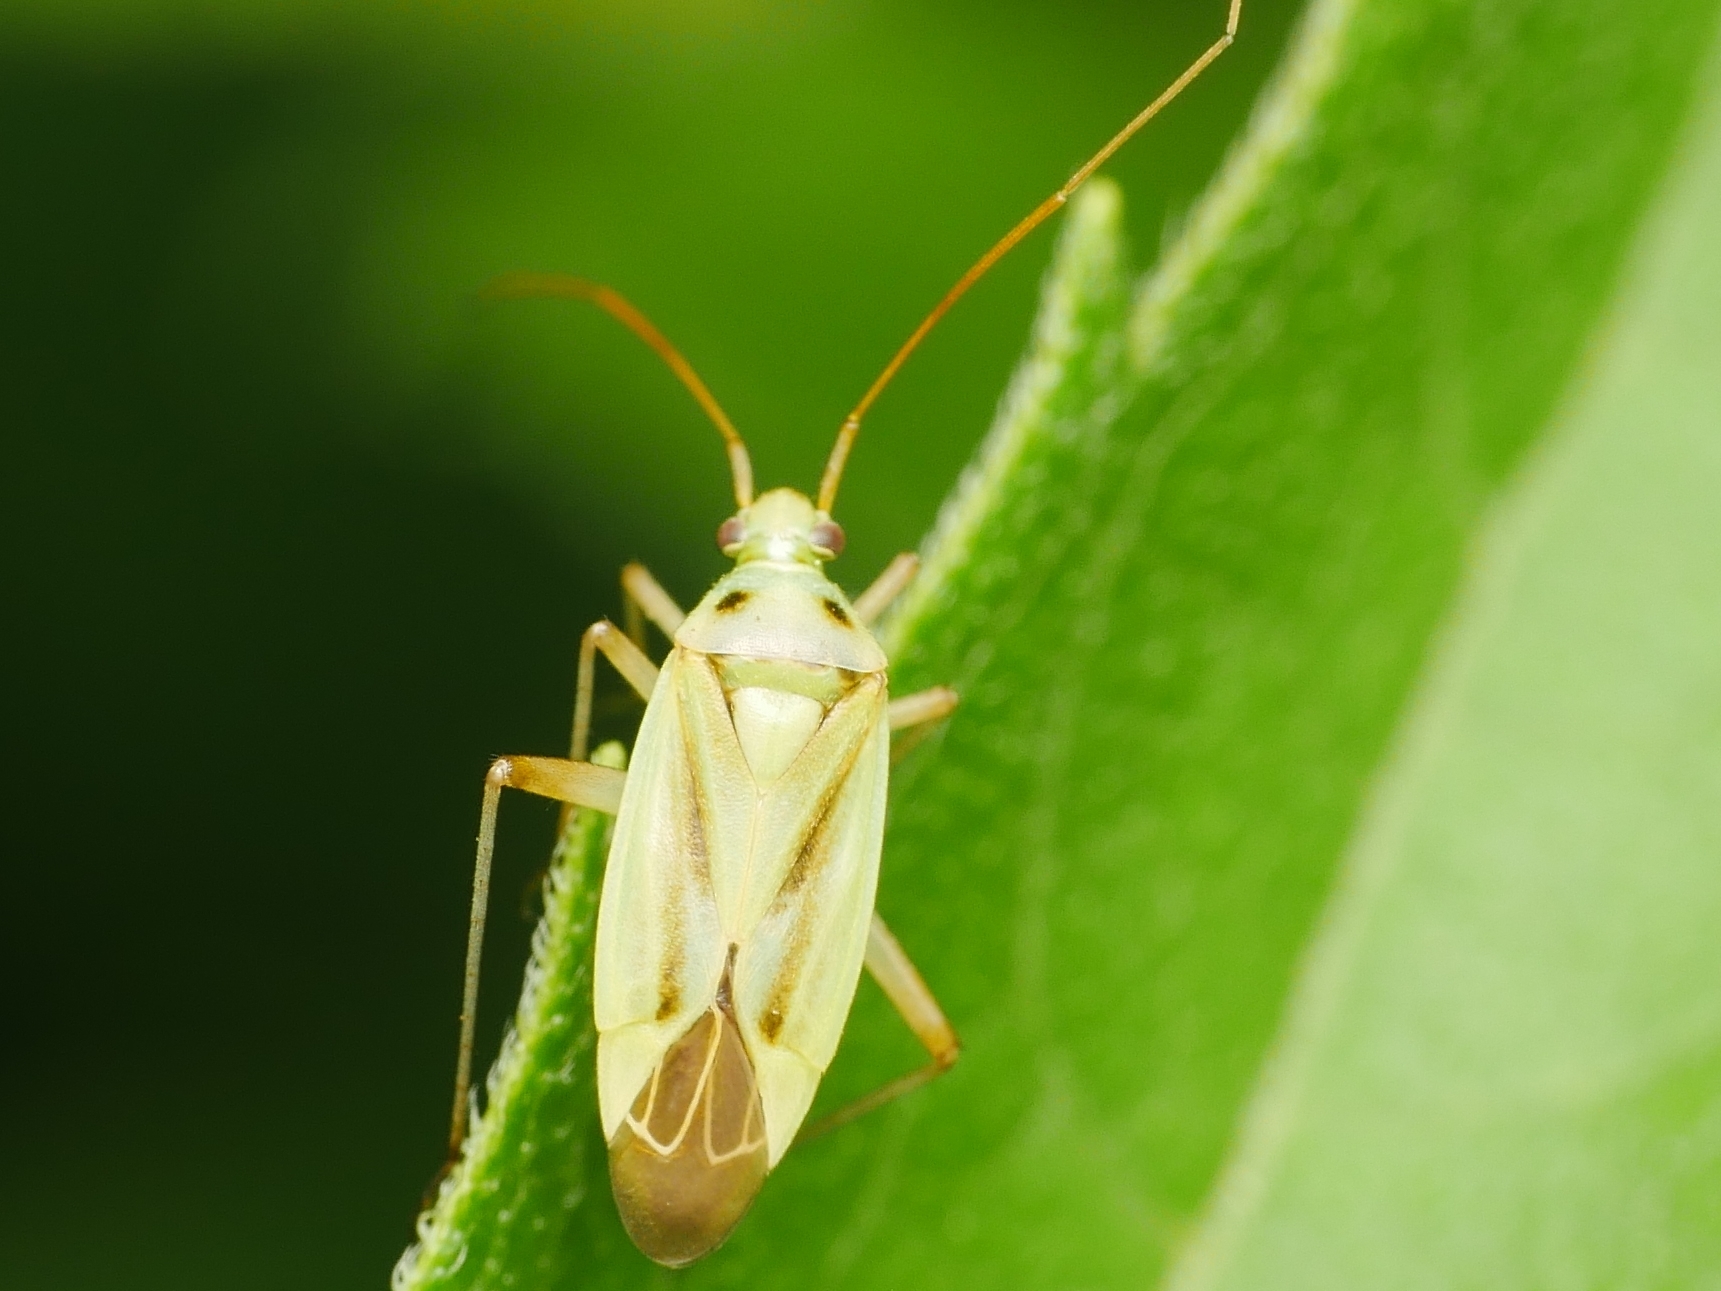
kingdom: Animalia
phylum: Arthropoda
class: Insecta
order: Hemiptera
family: Miridae
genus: Stenotus
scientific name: Stenotus binotatus
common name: Plant bug
